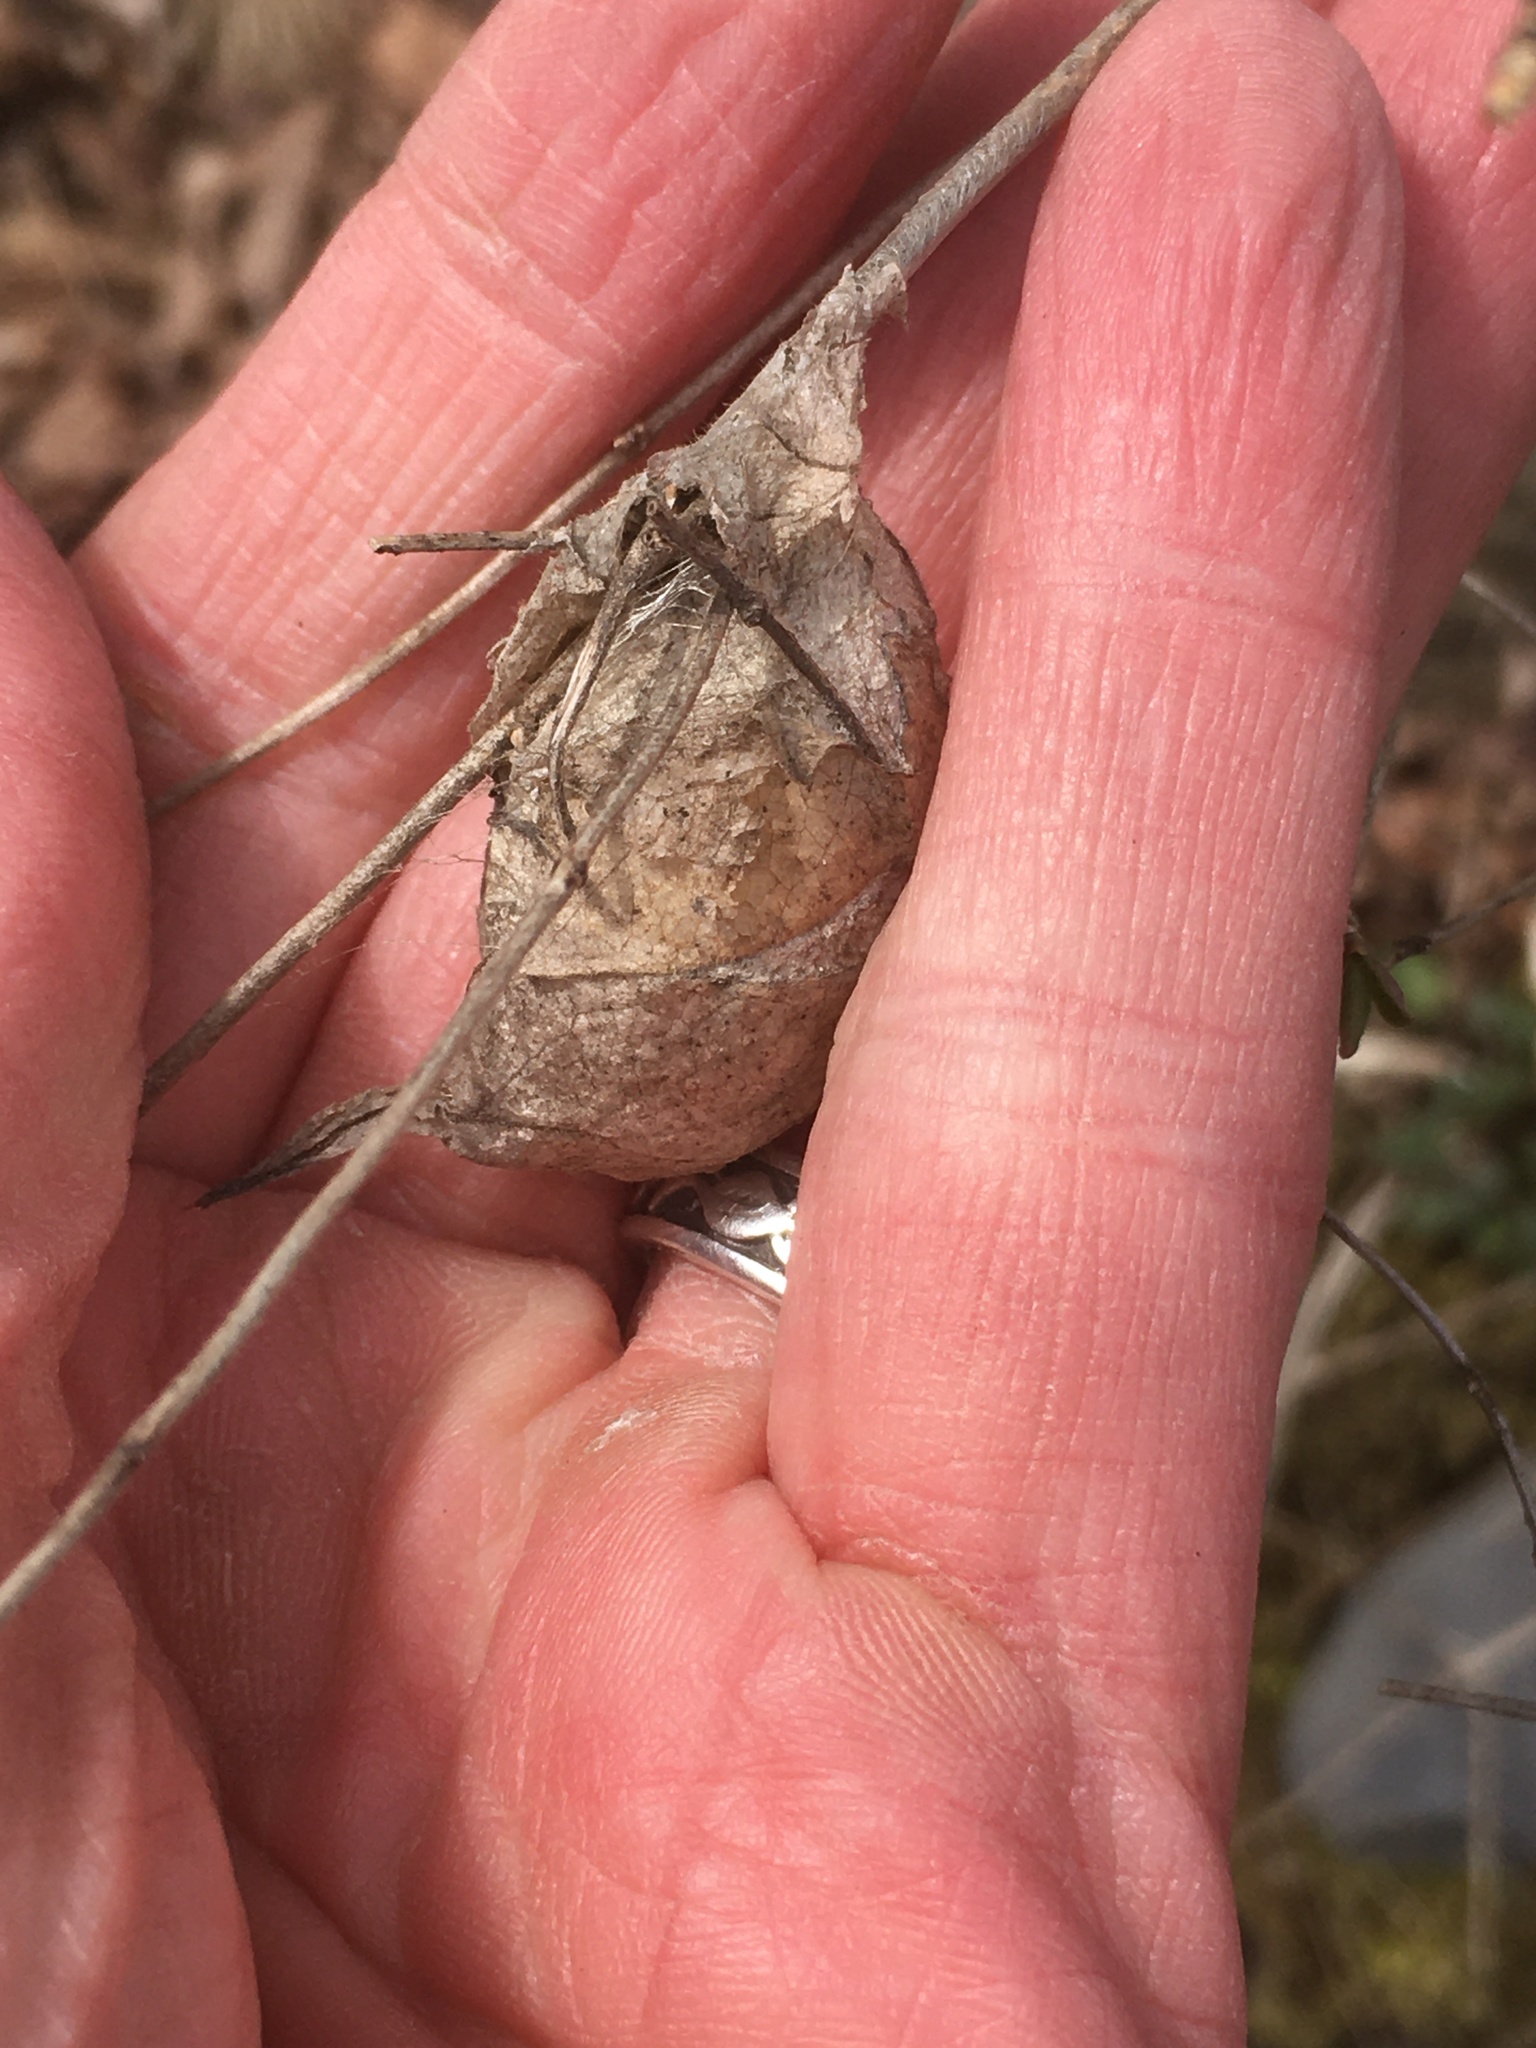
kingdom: Animalia
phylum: Arthropoda
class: Insecta
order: Lepidoptera
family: Saturniidae
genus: Antheraea
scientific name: Antheraea polyphemus
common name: Polyphemus moth
